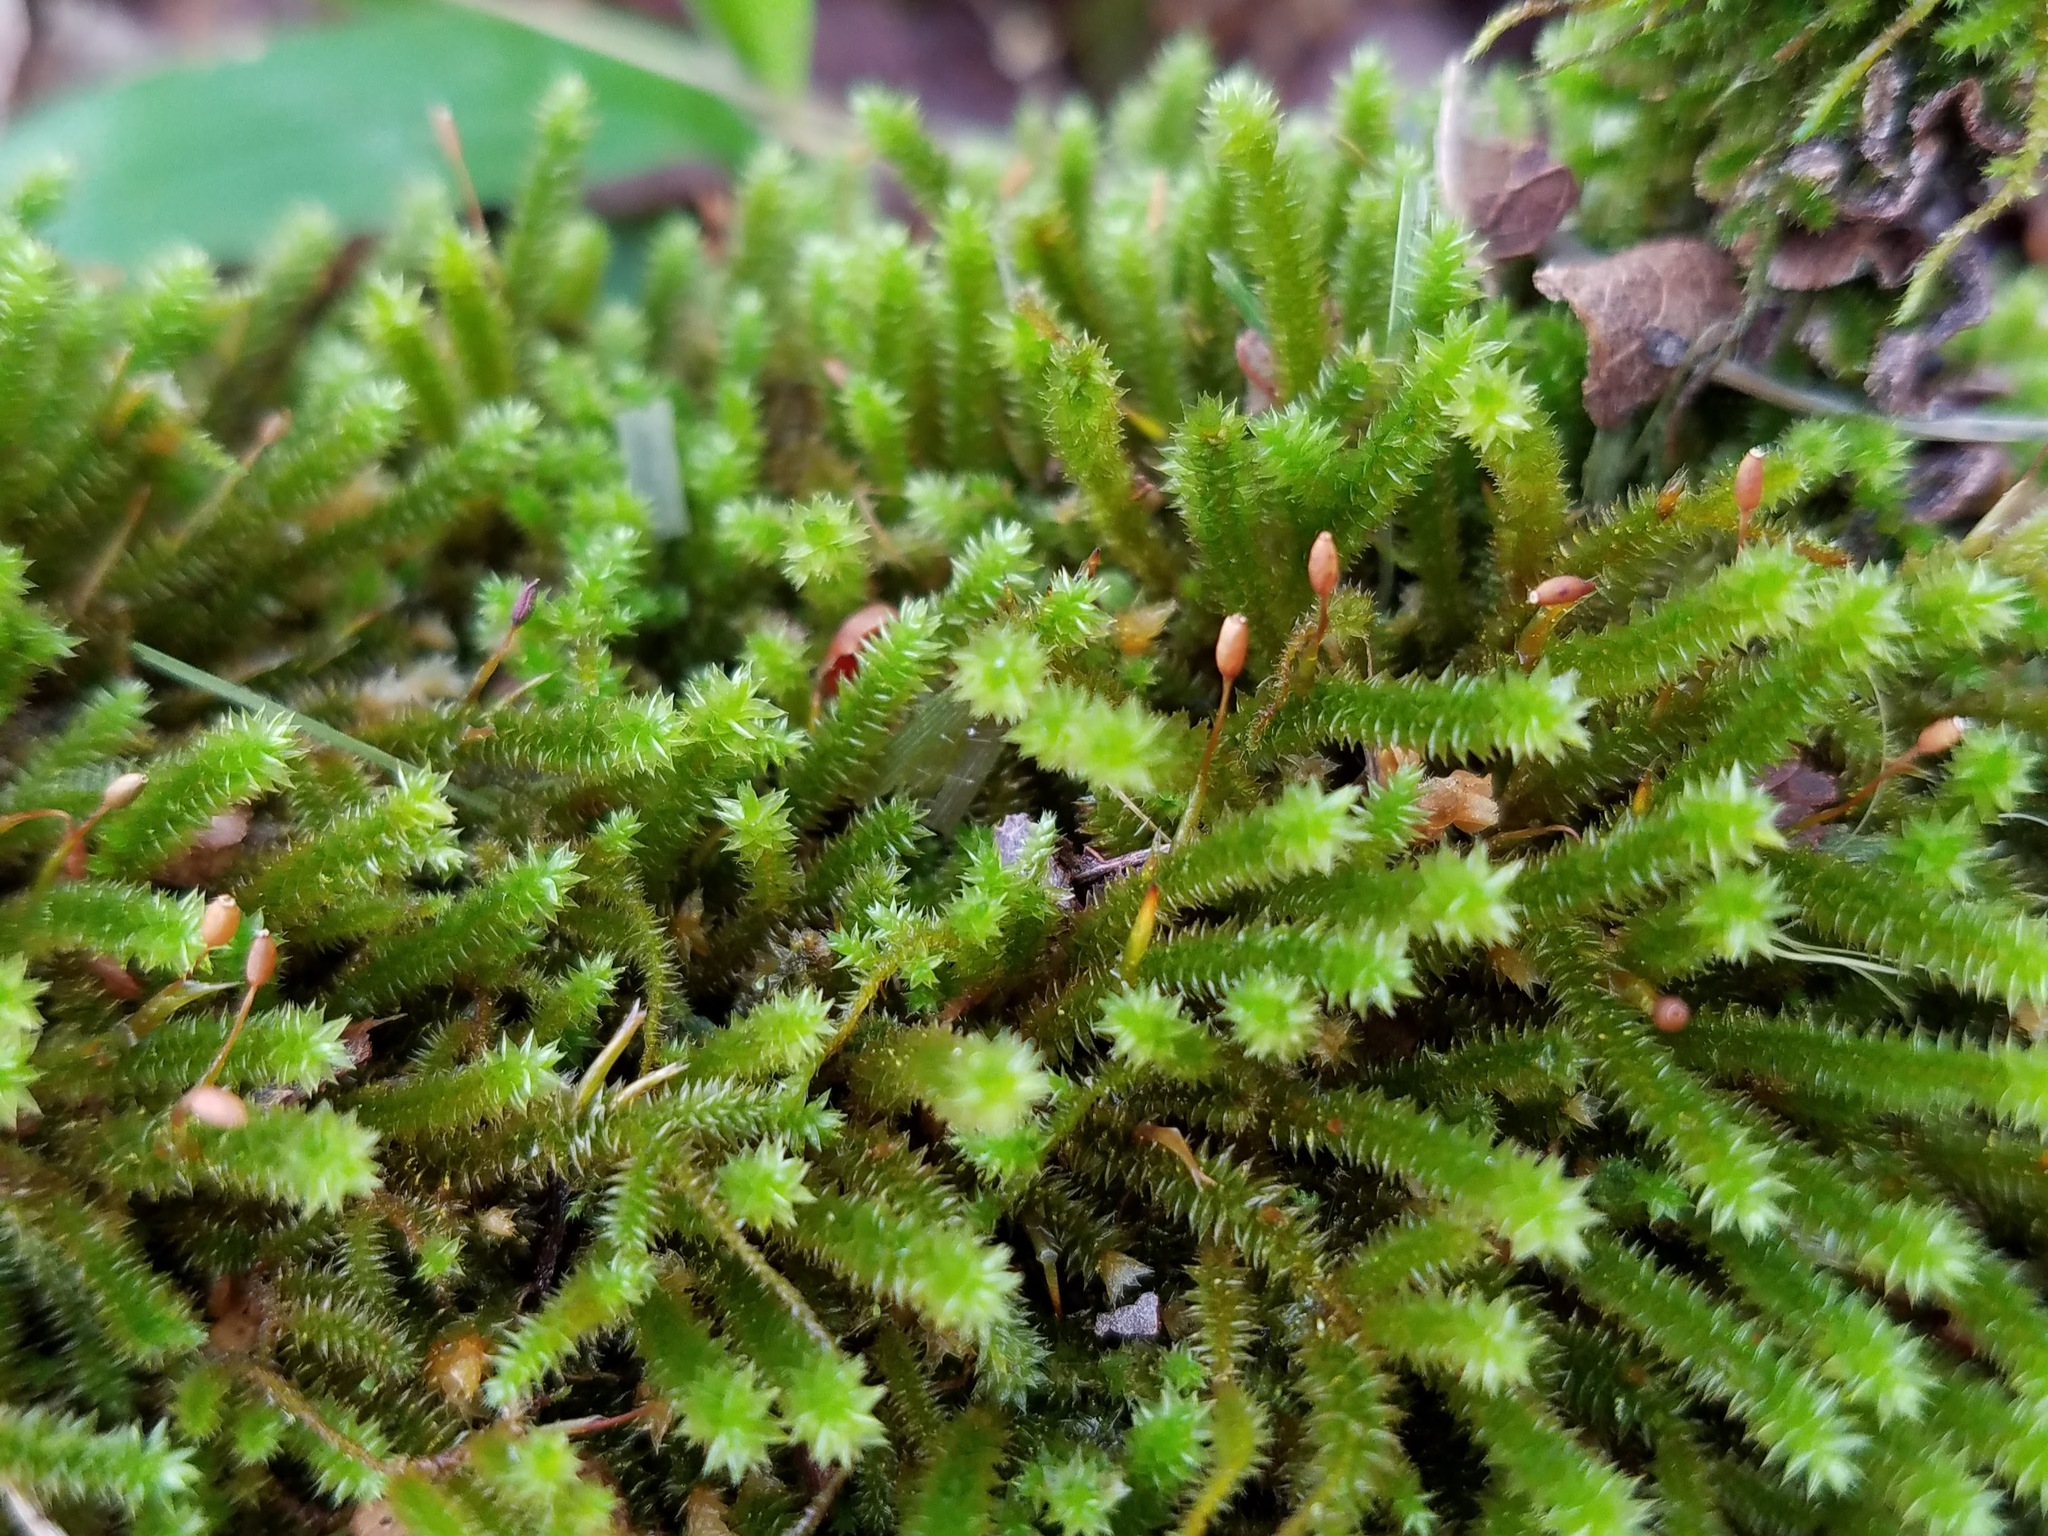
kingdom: Plantae
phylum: Bryophyta
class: Bryopsida
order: Hypnales
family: Leucodontaceae
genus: Leucodon
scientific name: Leucodon julaceus
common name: Smooth hook moss
